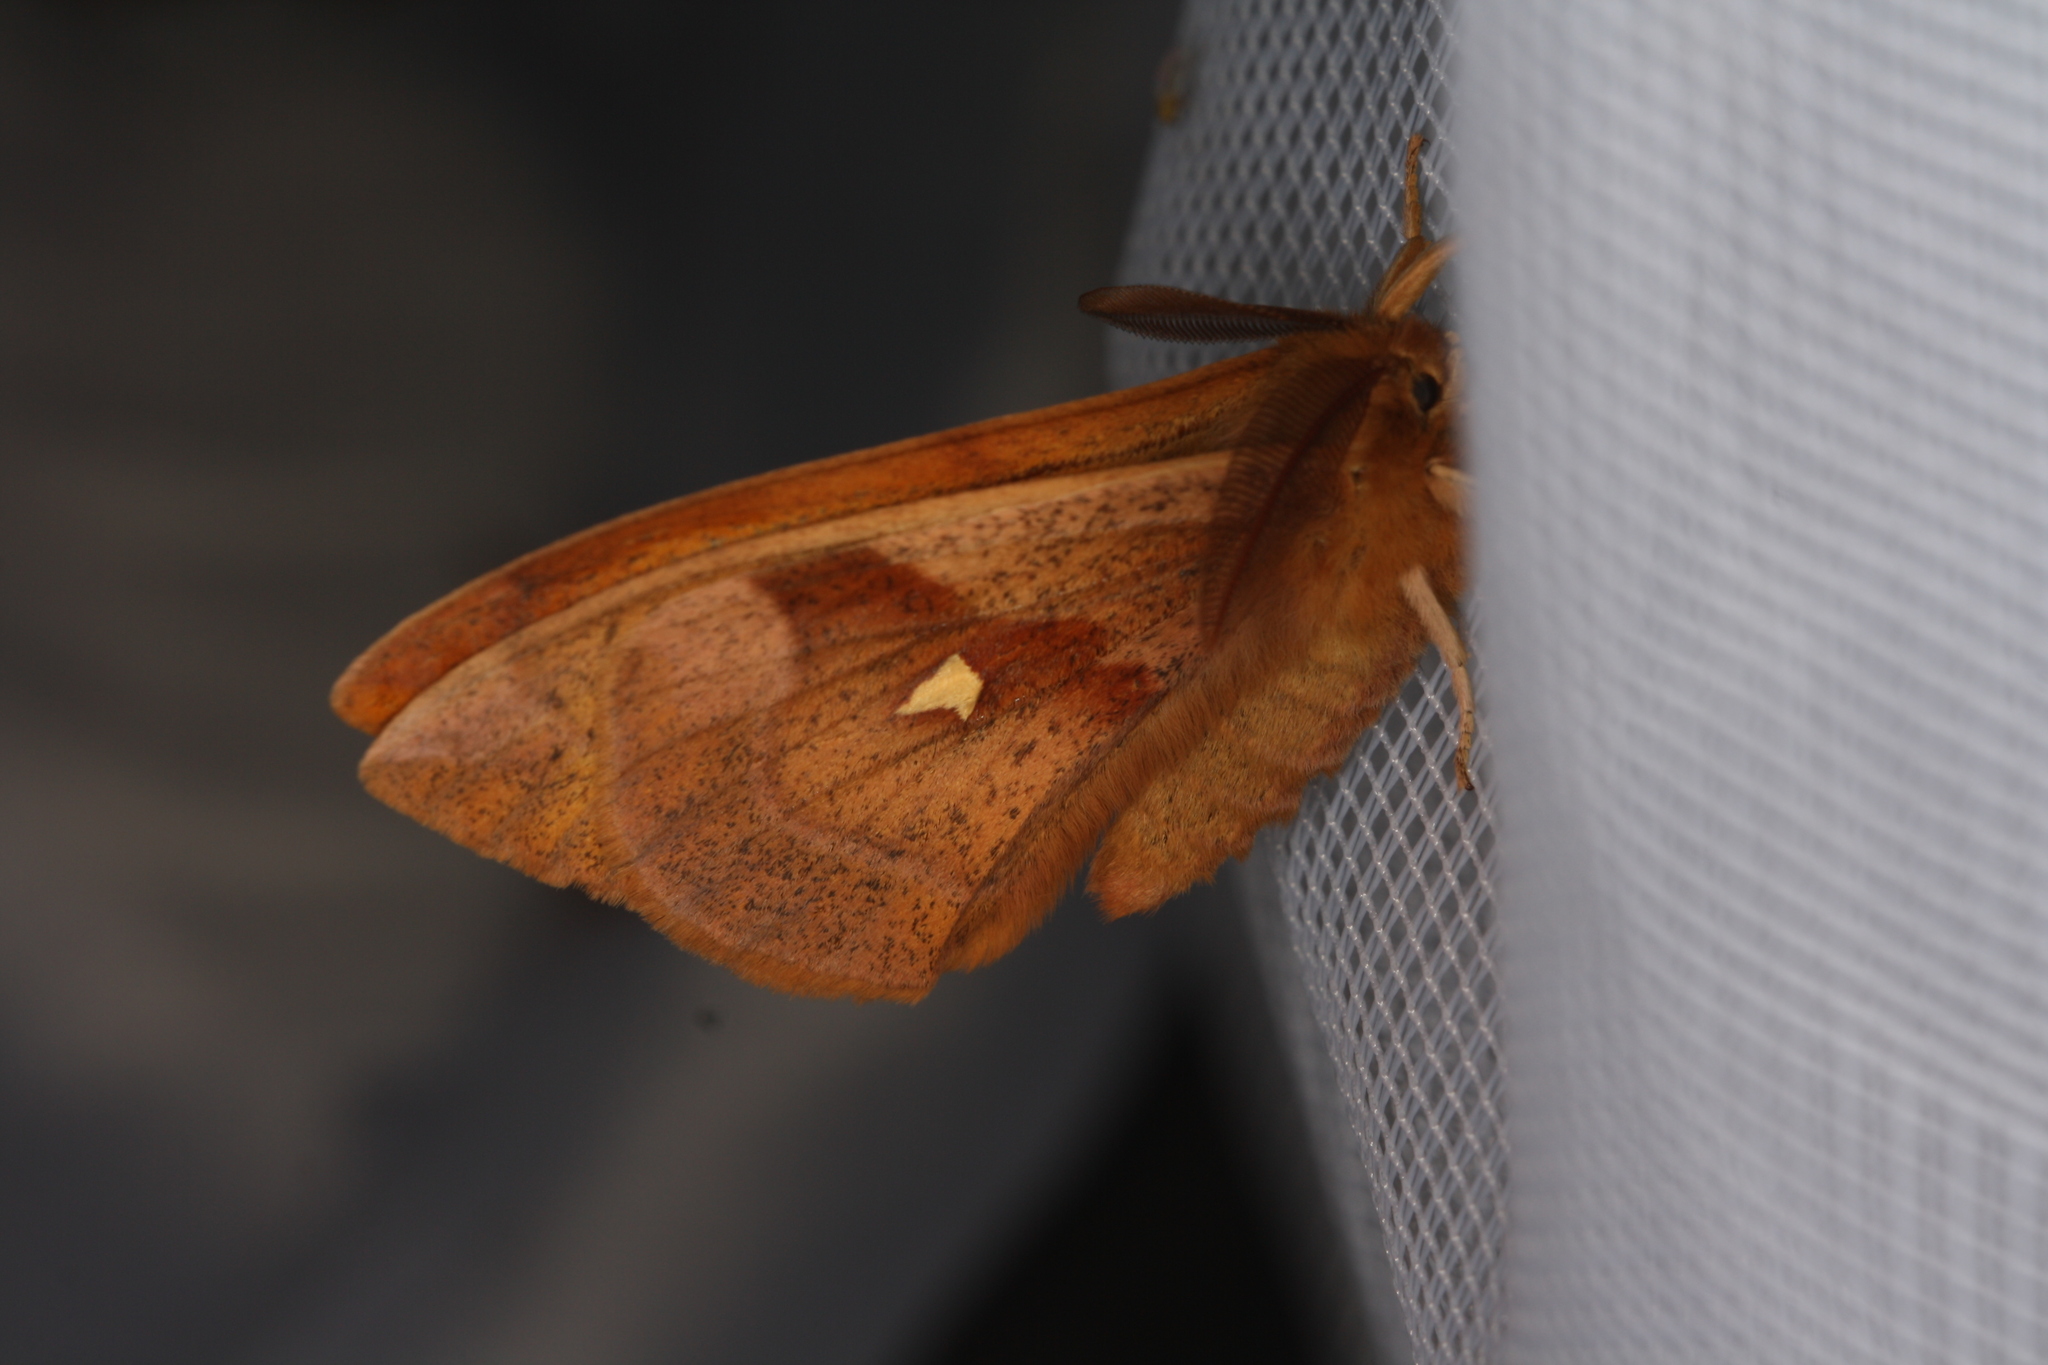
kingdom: Animalia
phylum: Arthropoda
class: Insecta
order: Lepidoptera
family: Saturniidae
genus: Aglia
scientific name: Aglia tau
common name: Tau emperor
